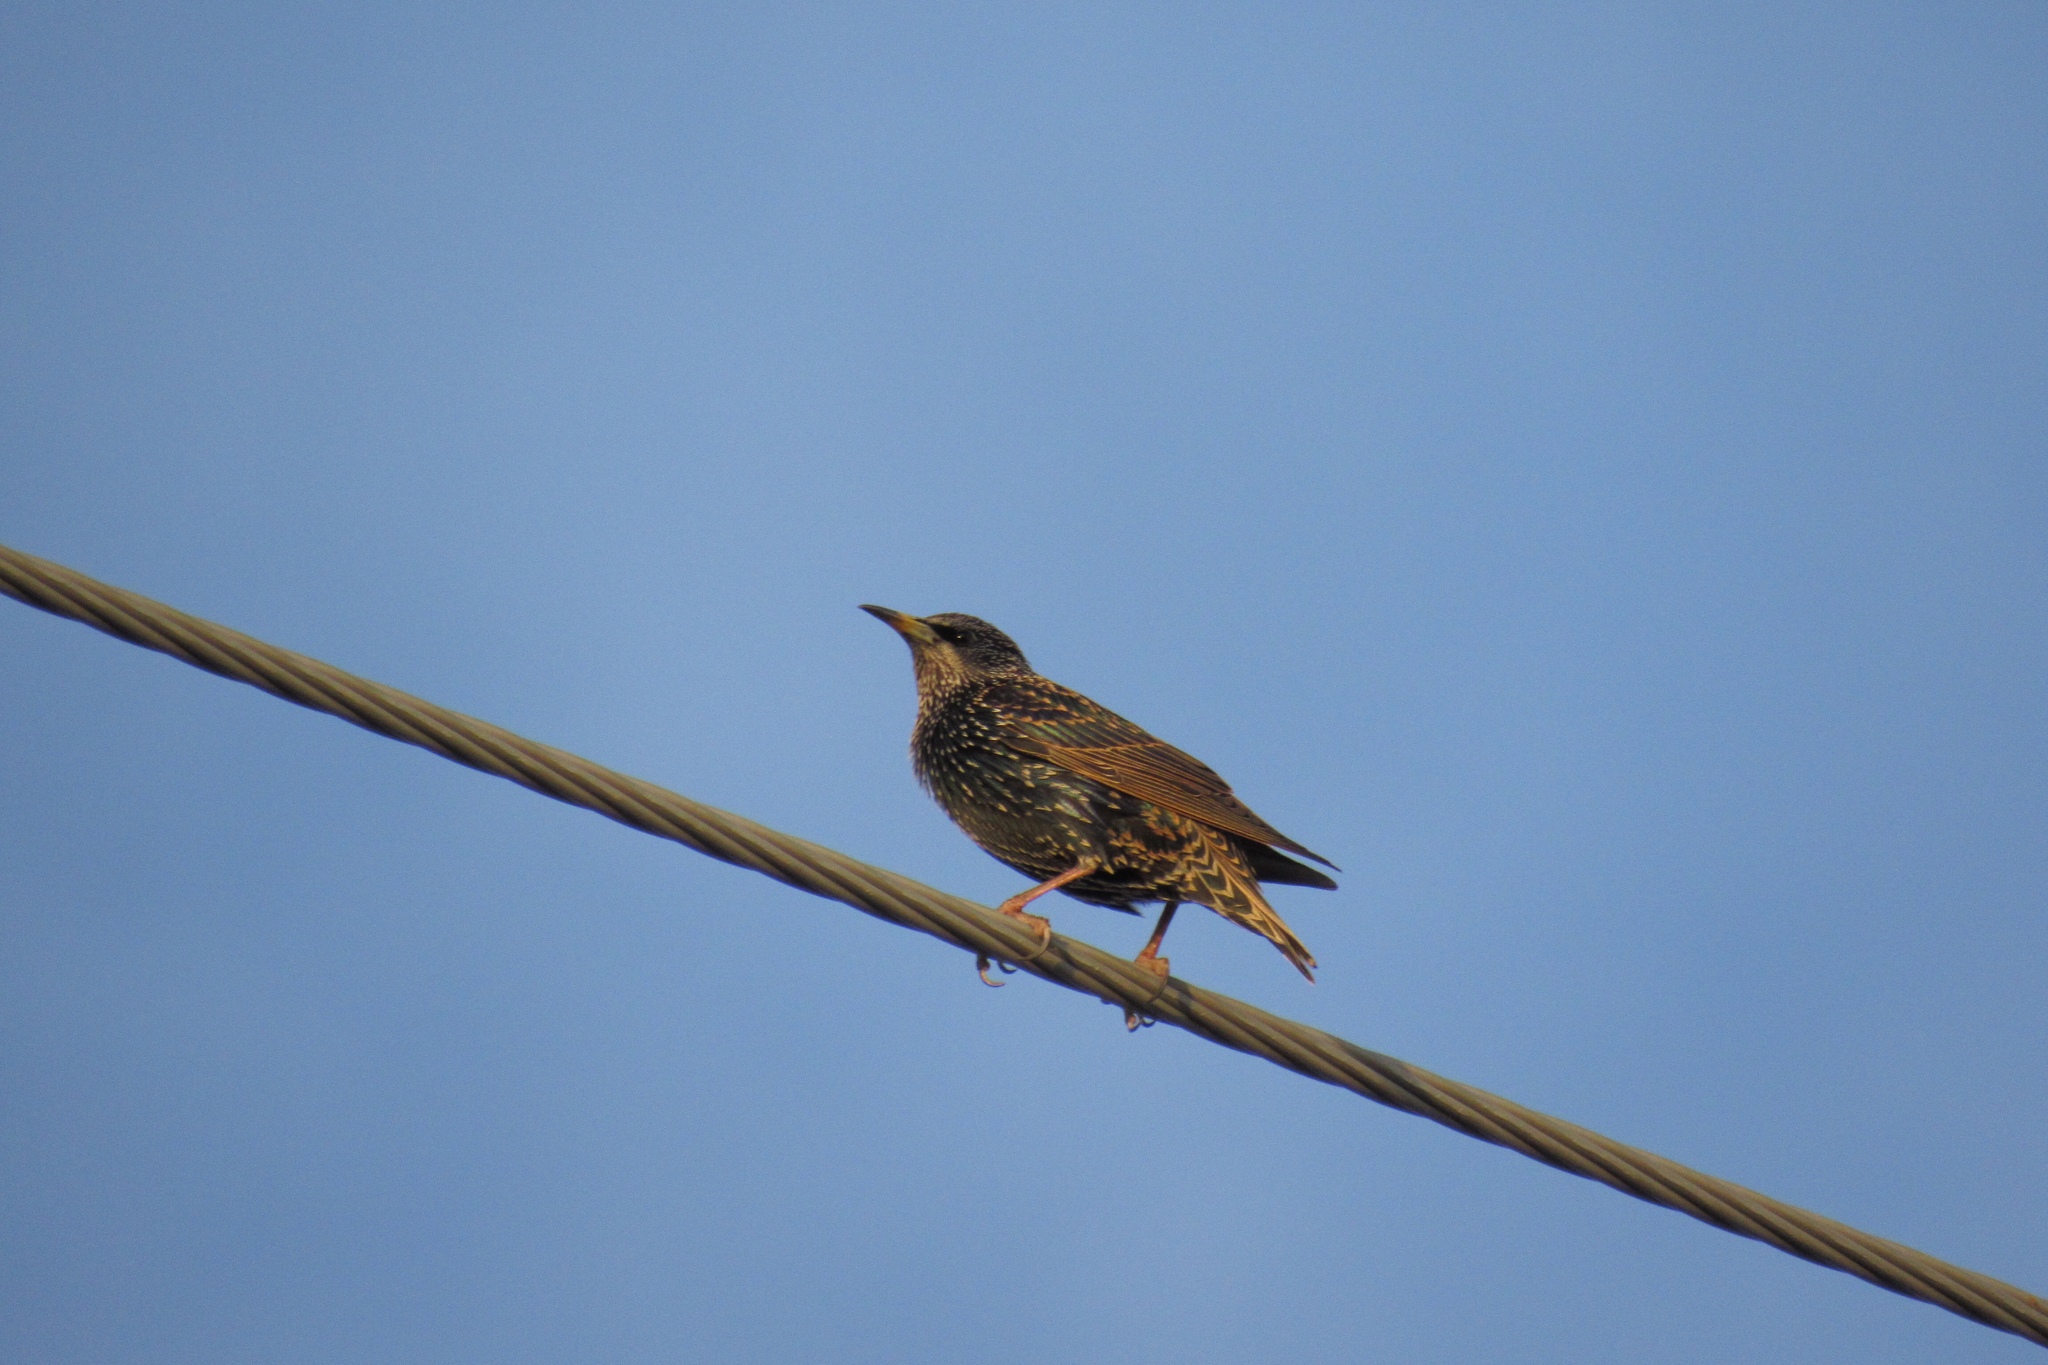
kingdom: Animalia
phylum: Chordata
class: Aves
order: Passeriformes
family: Sturnidae
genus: Sturnus
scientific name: Sturnus vulgaris
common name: Common starling
